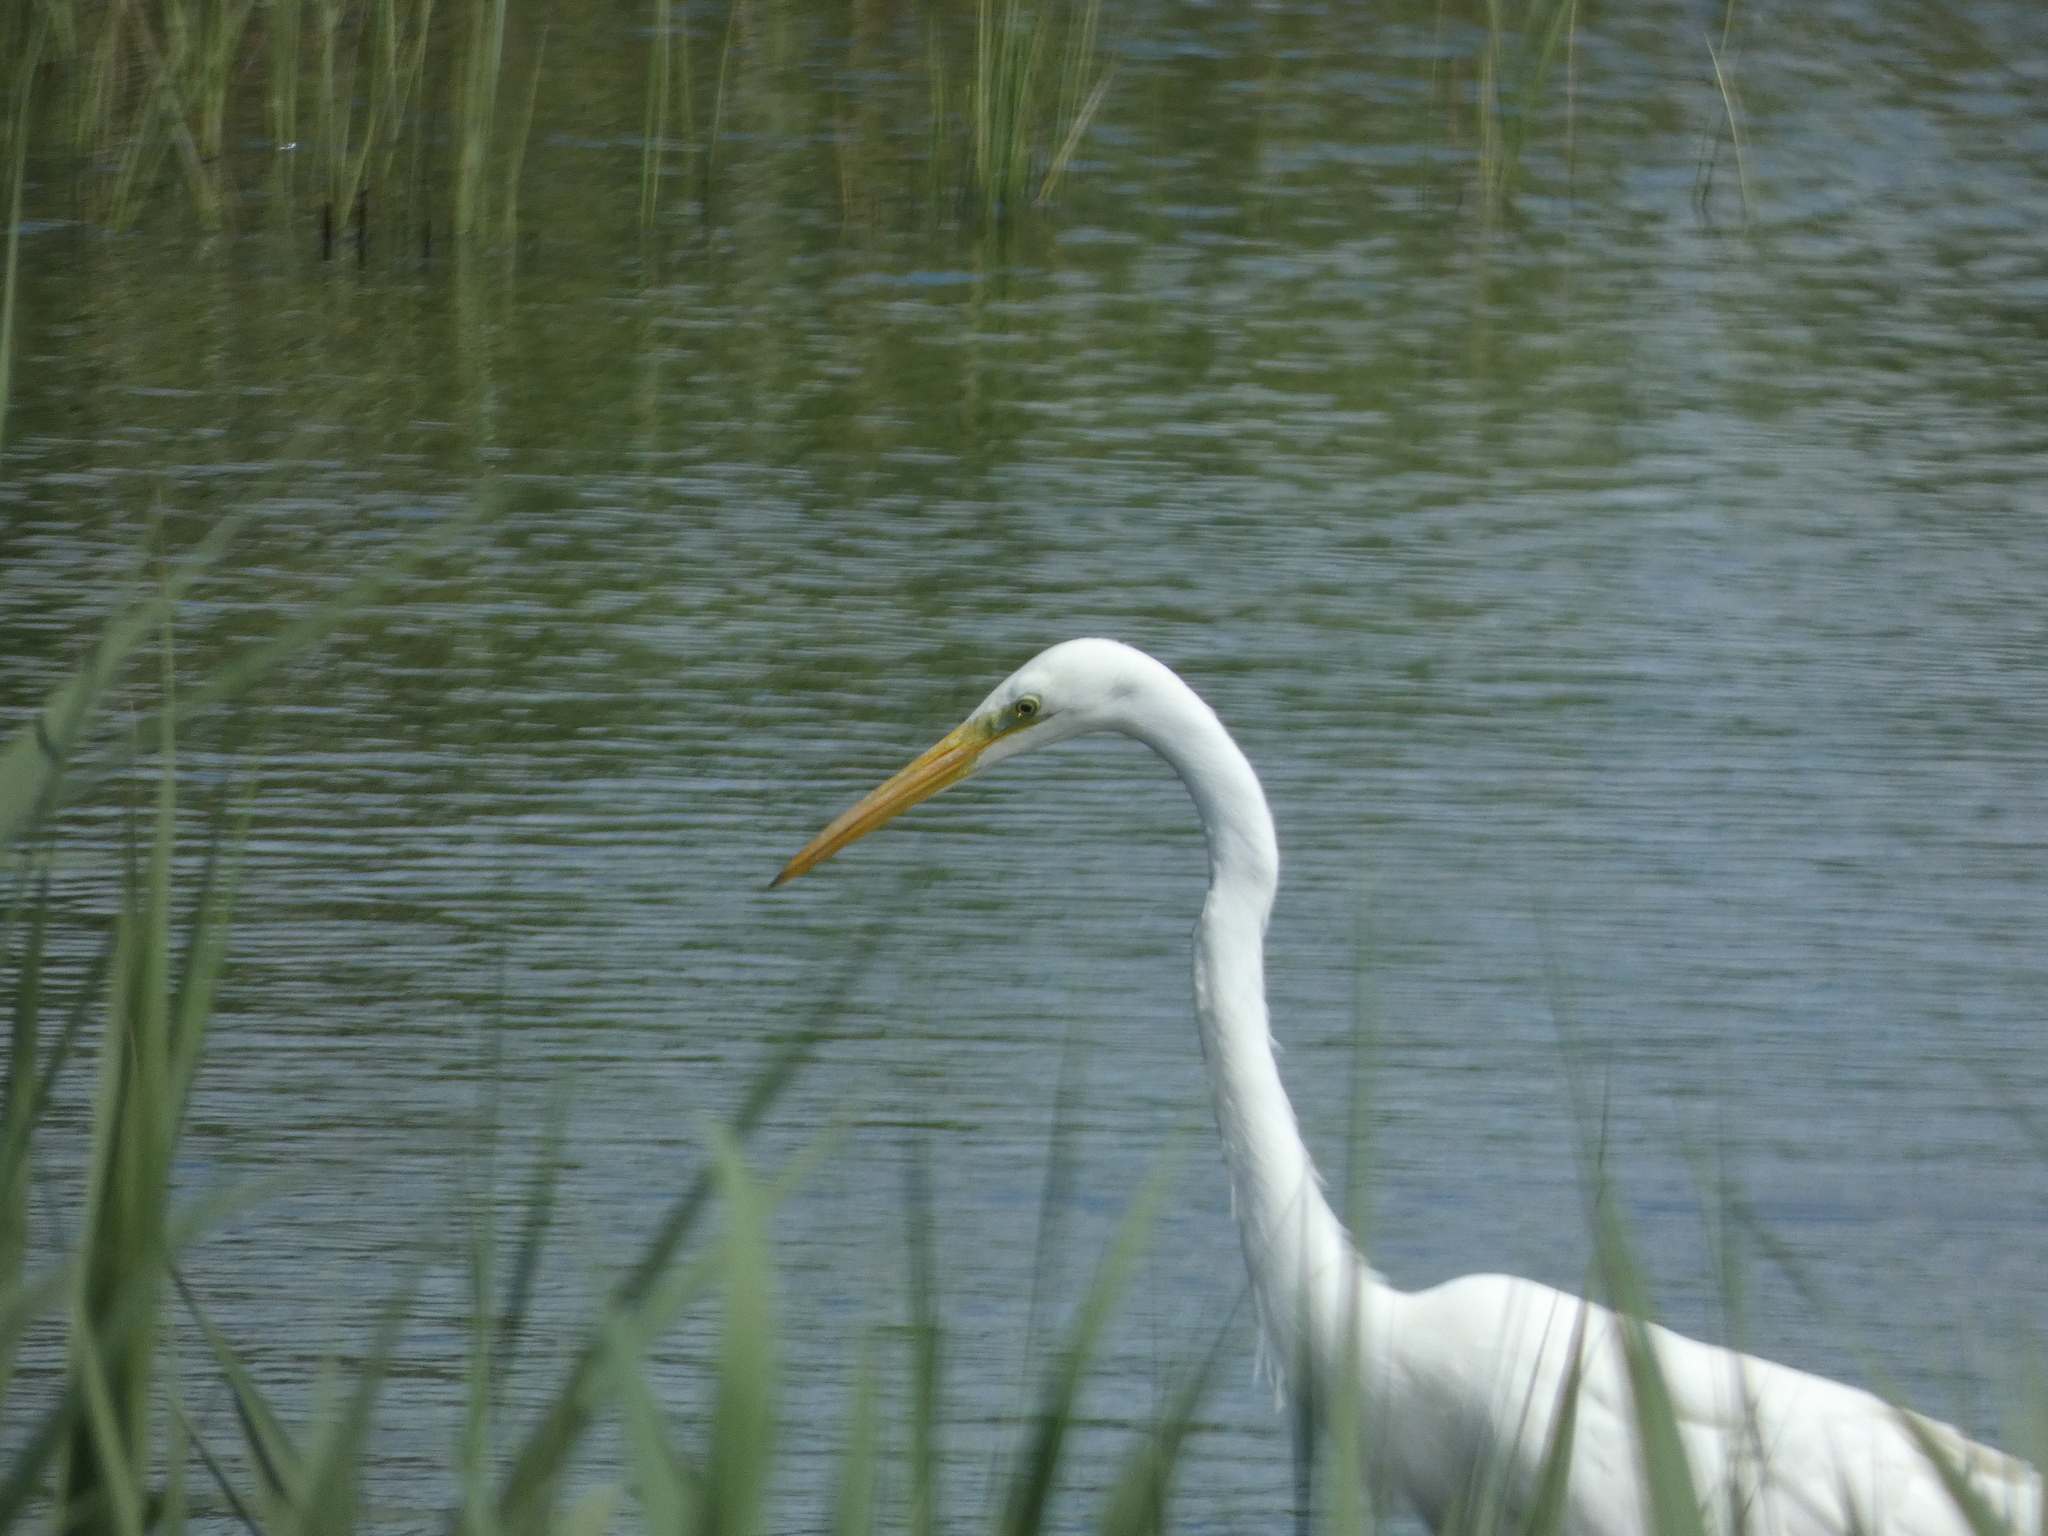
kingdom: Animalia
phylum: Chordata
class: Aves
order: Pelecaniformes
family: Ardeidae
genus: Ardea
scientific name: Ardea alba
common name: Great egret
